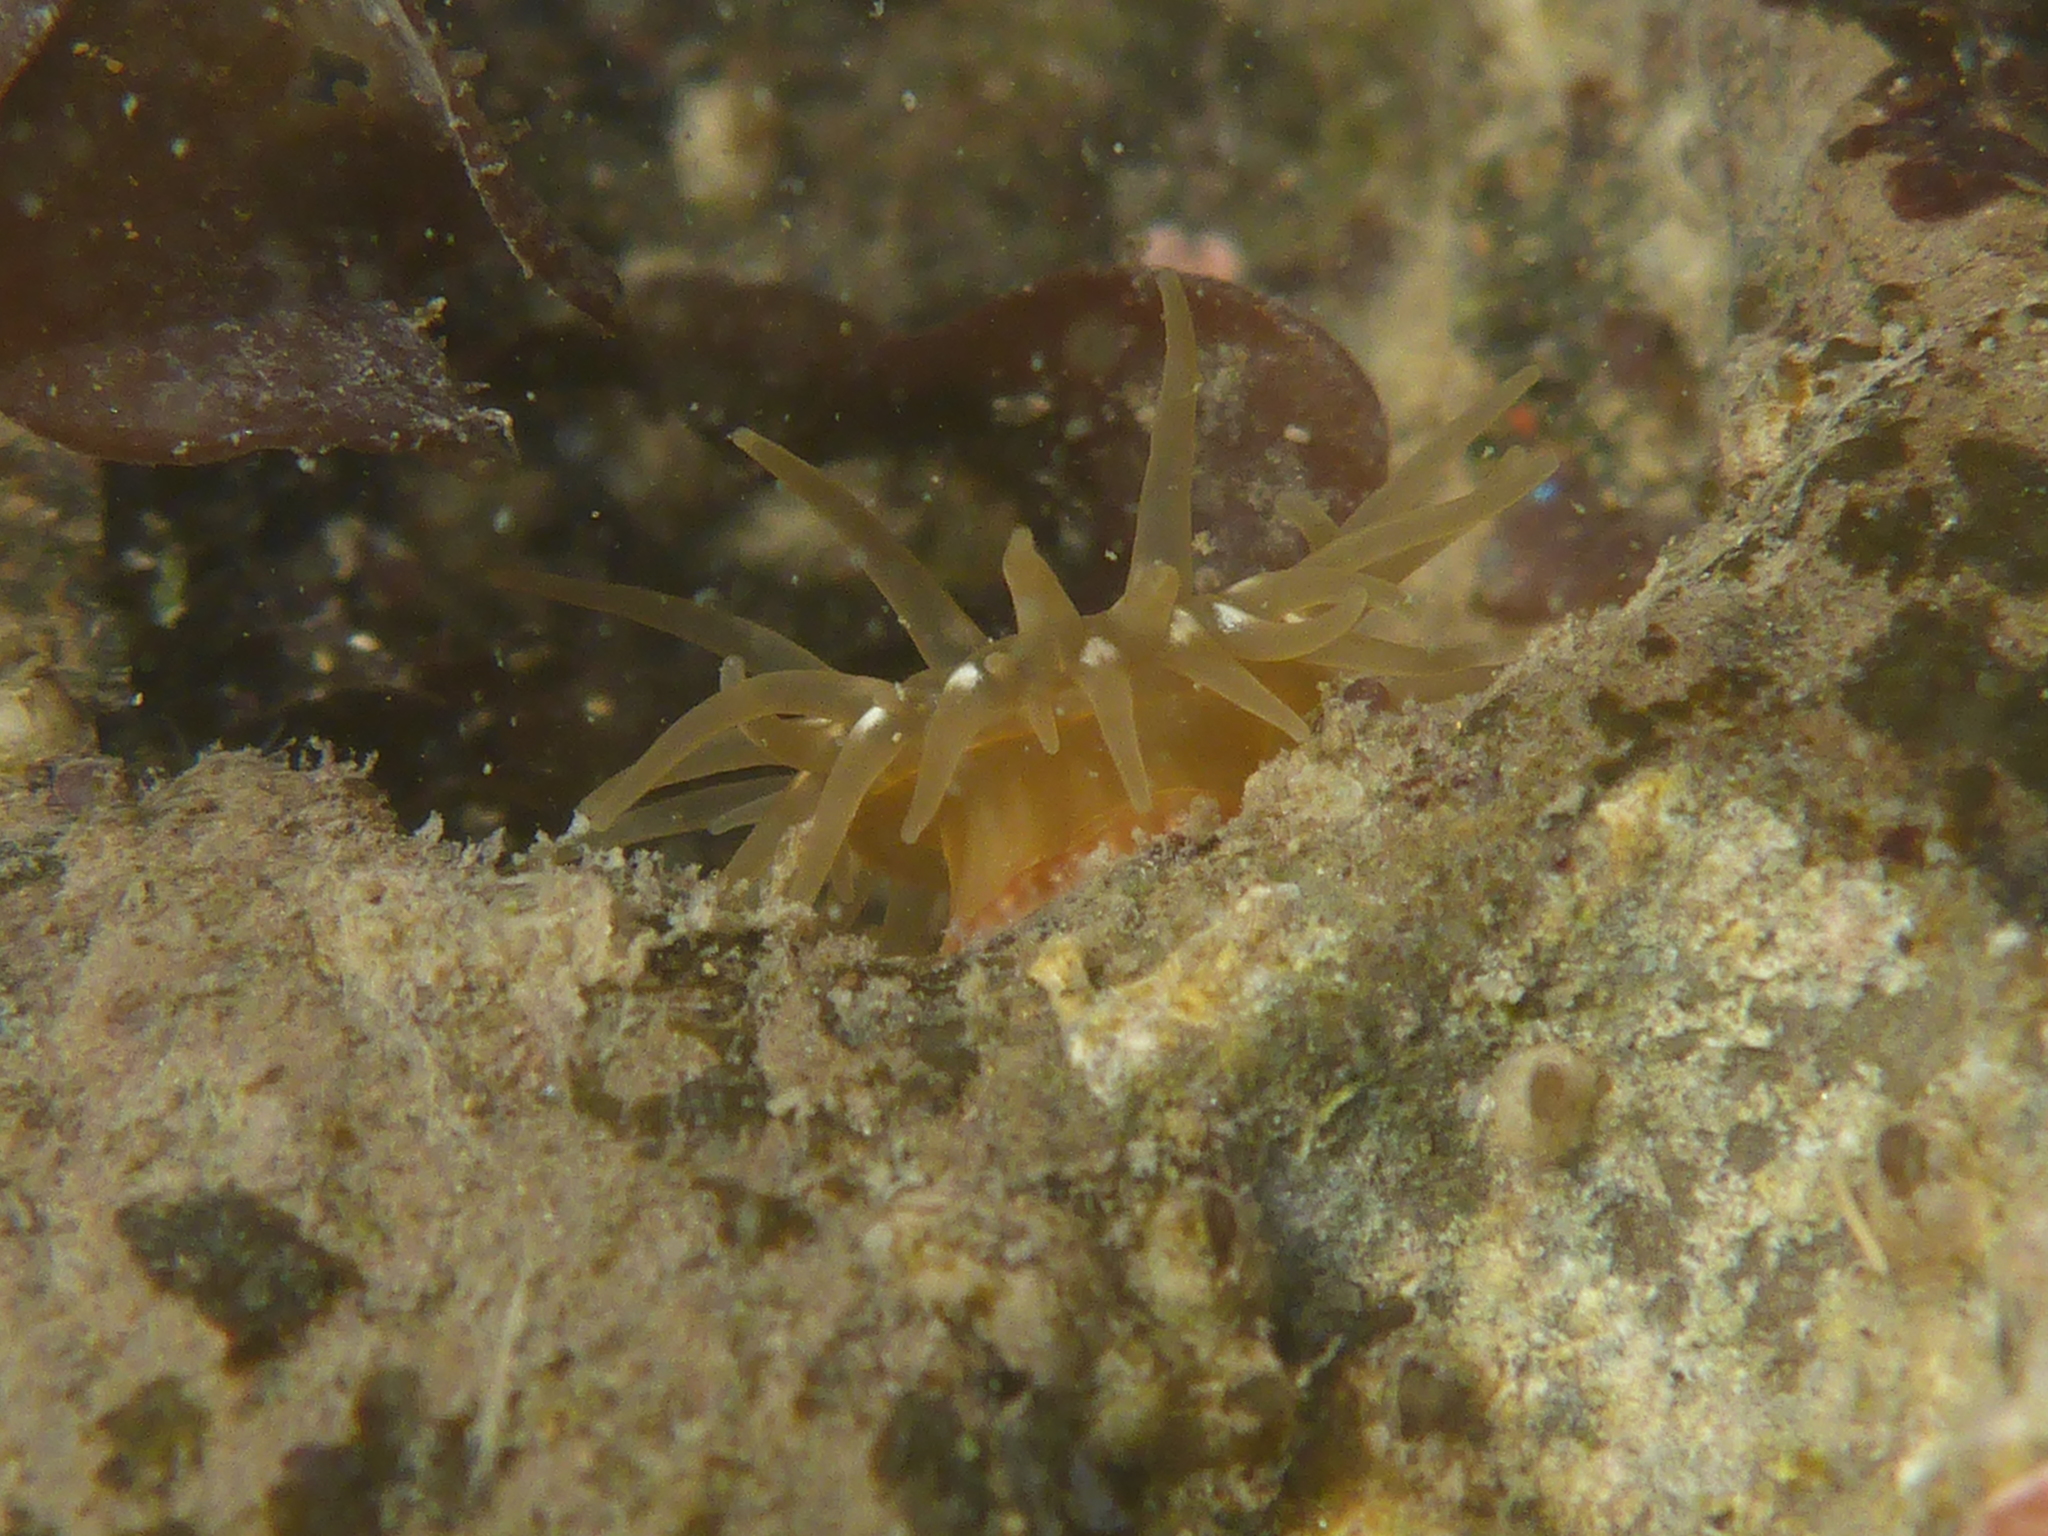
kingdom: Animalia
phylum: Cnidaria
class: Anthozoa
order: Actiniaria
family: Actiniidae
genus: Epiactis
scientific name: Epiactis prolifera
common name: Brooding anemone
